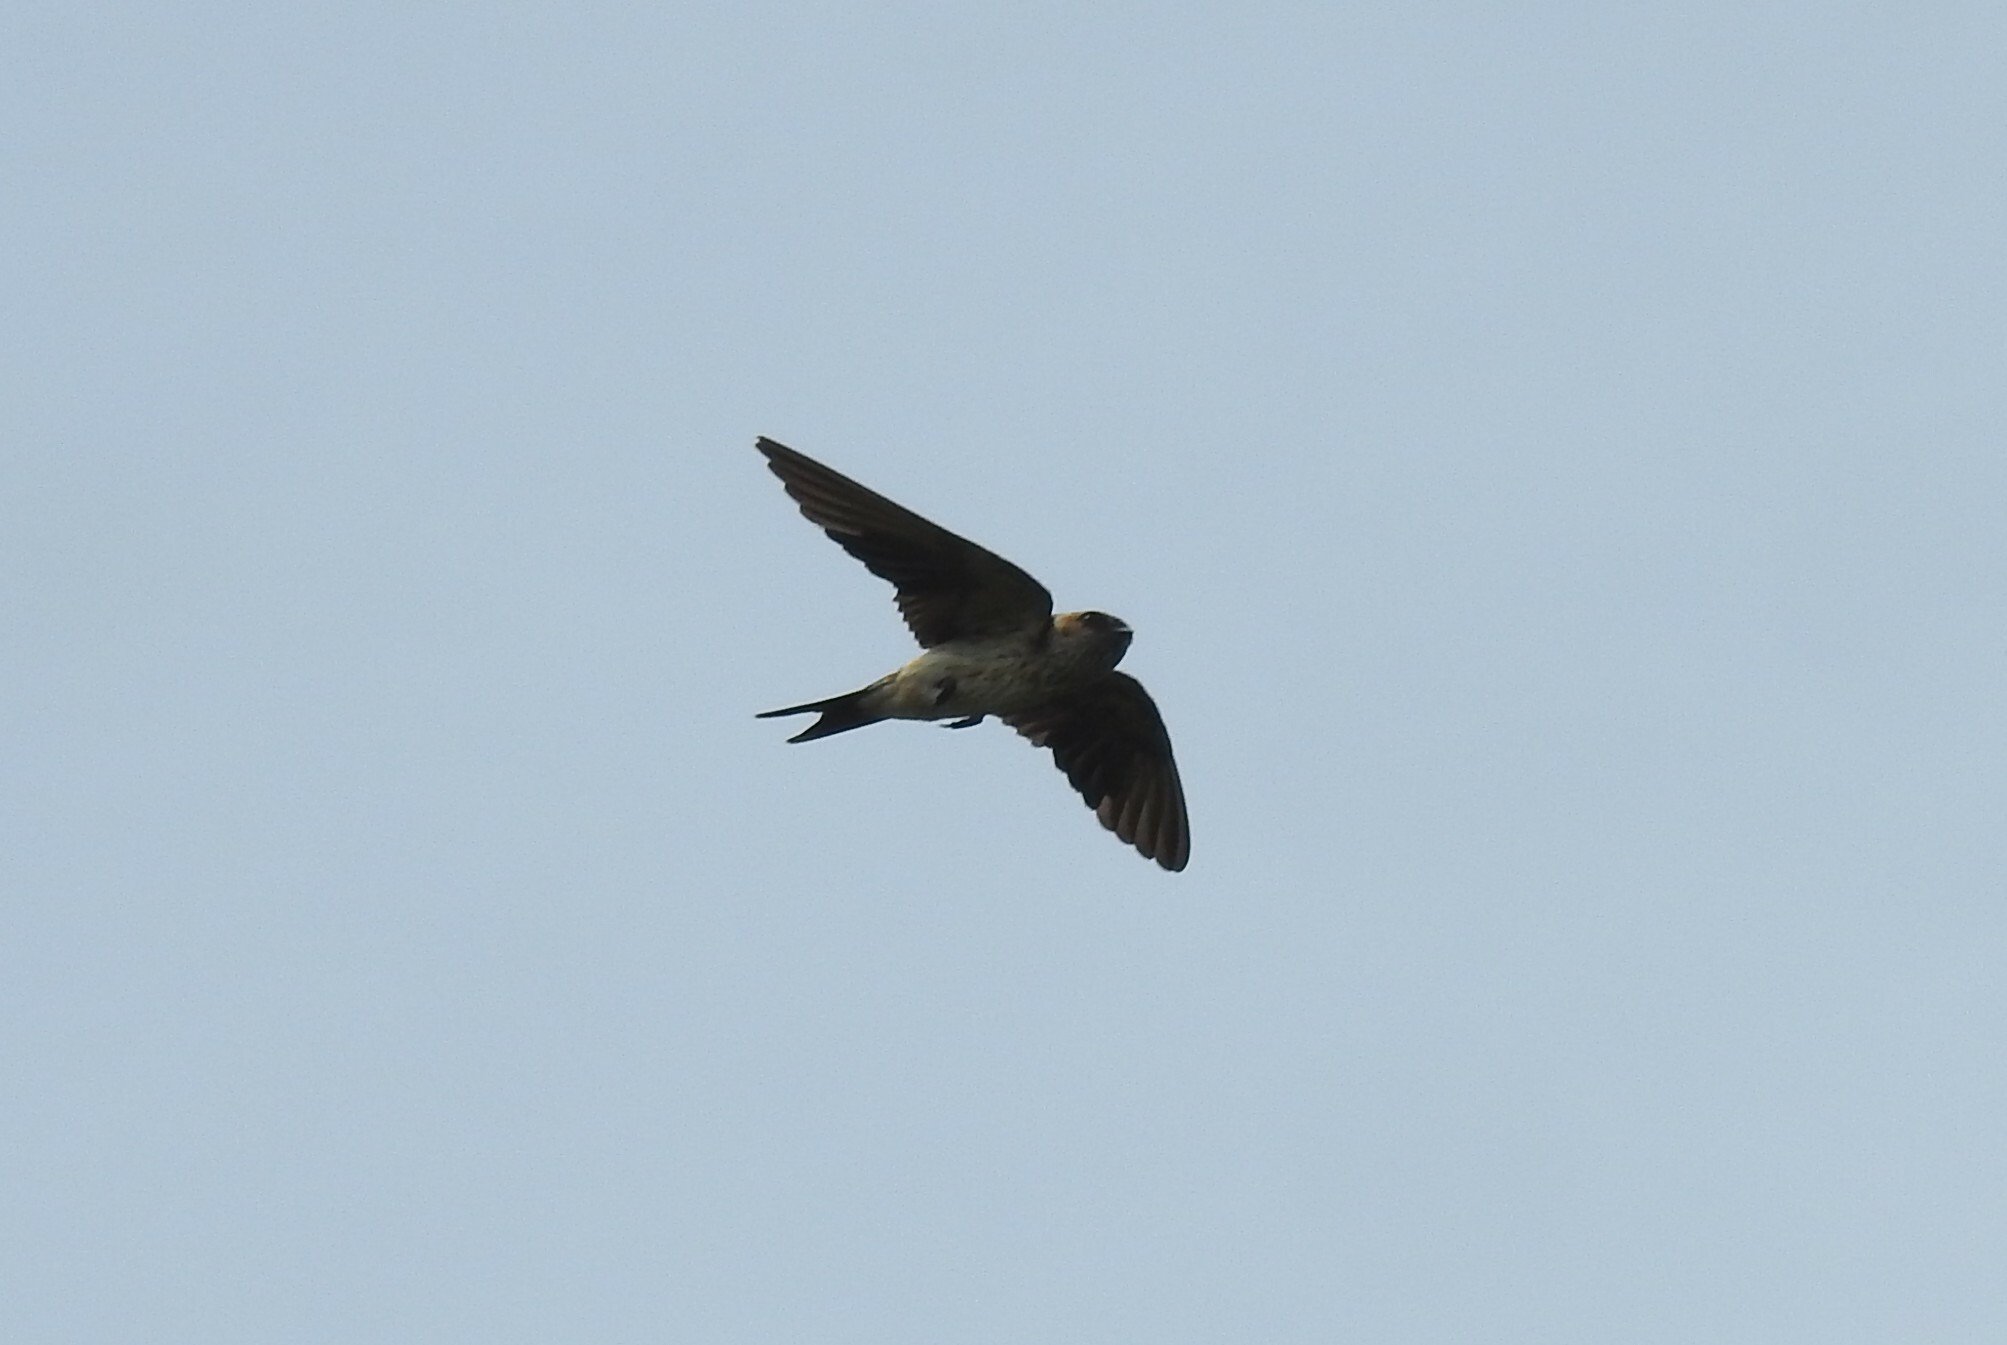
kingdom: Animalia
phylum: Chordata
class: Aves
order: Passeriformes
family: Hirundinidae
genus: Cecropis
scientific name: Cecropis daurica
